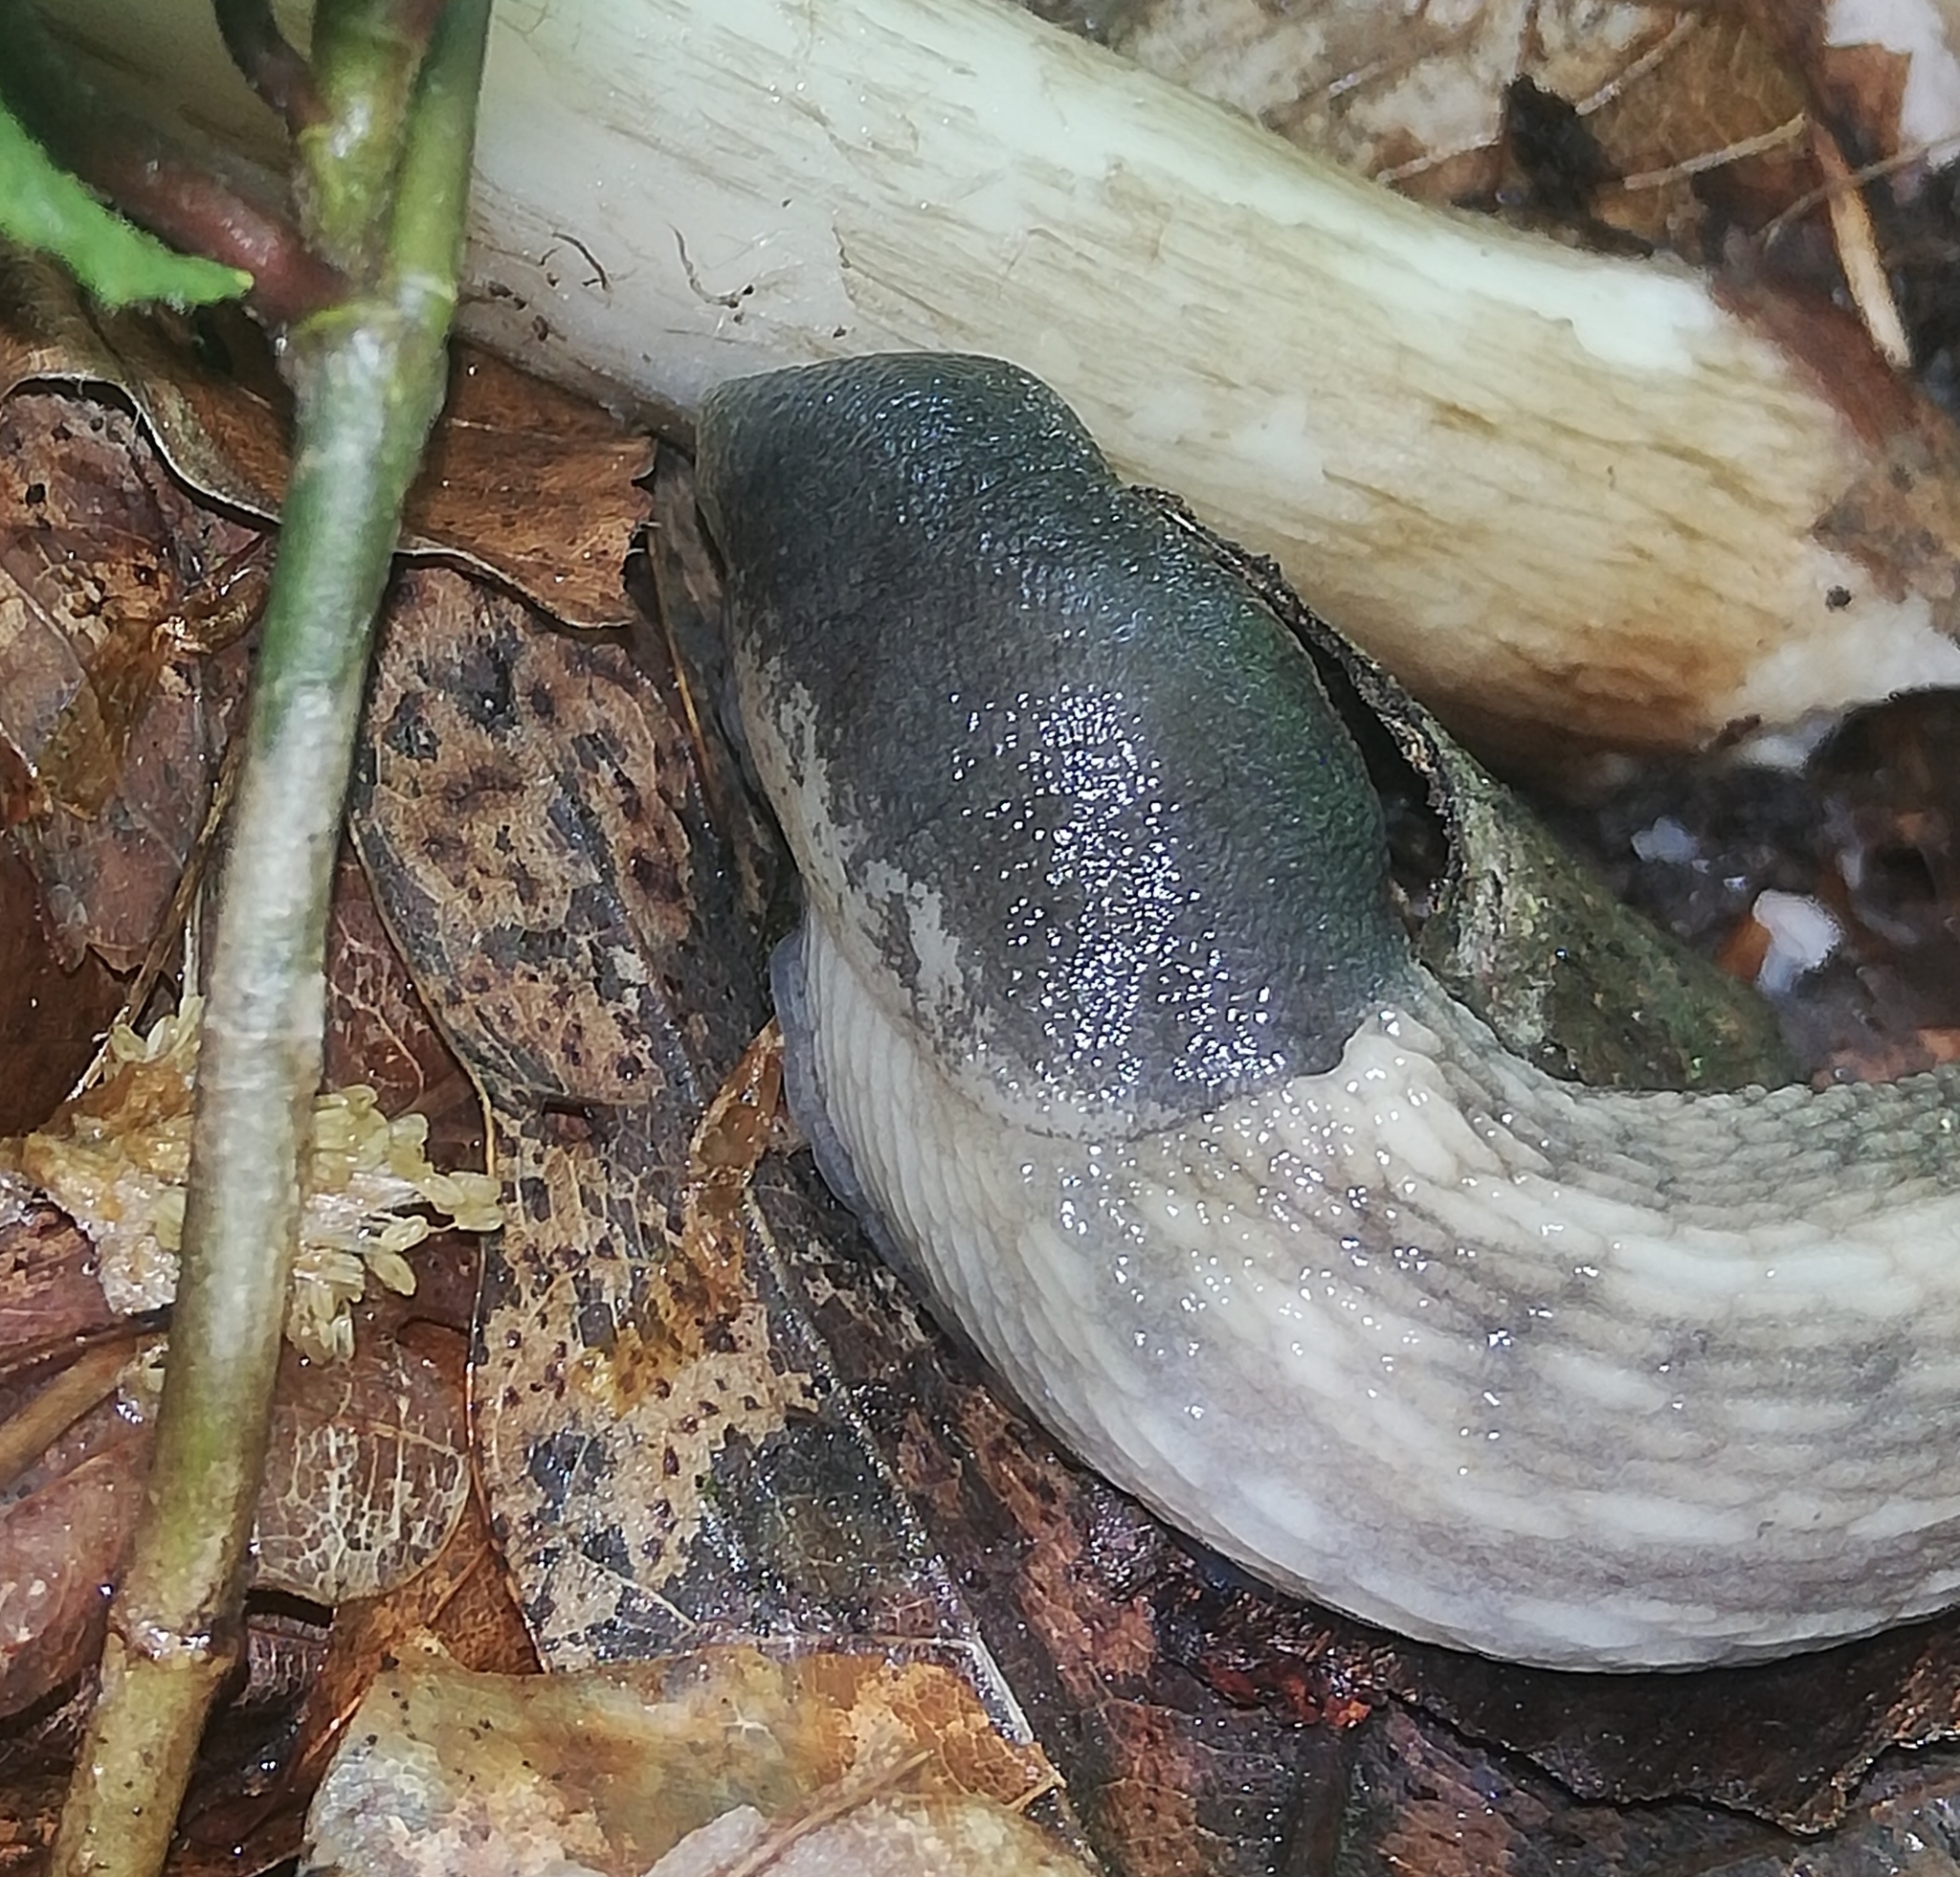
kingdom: Animalia
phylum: Mollusca
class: Gastropoda
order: Stylommatophora
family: Limacidae
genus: Limax
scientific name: Limax cinereoniger
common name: Ash-black slug
